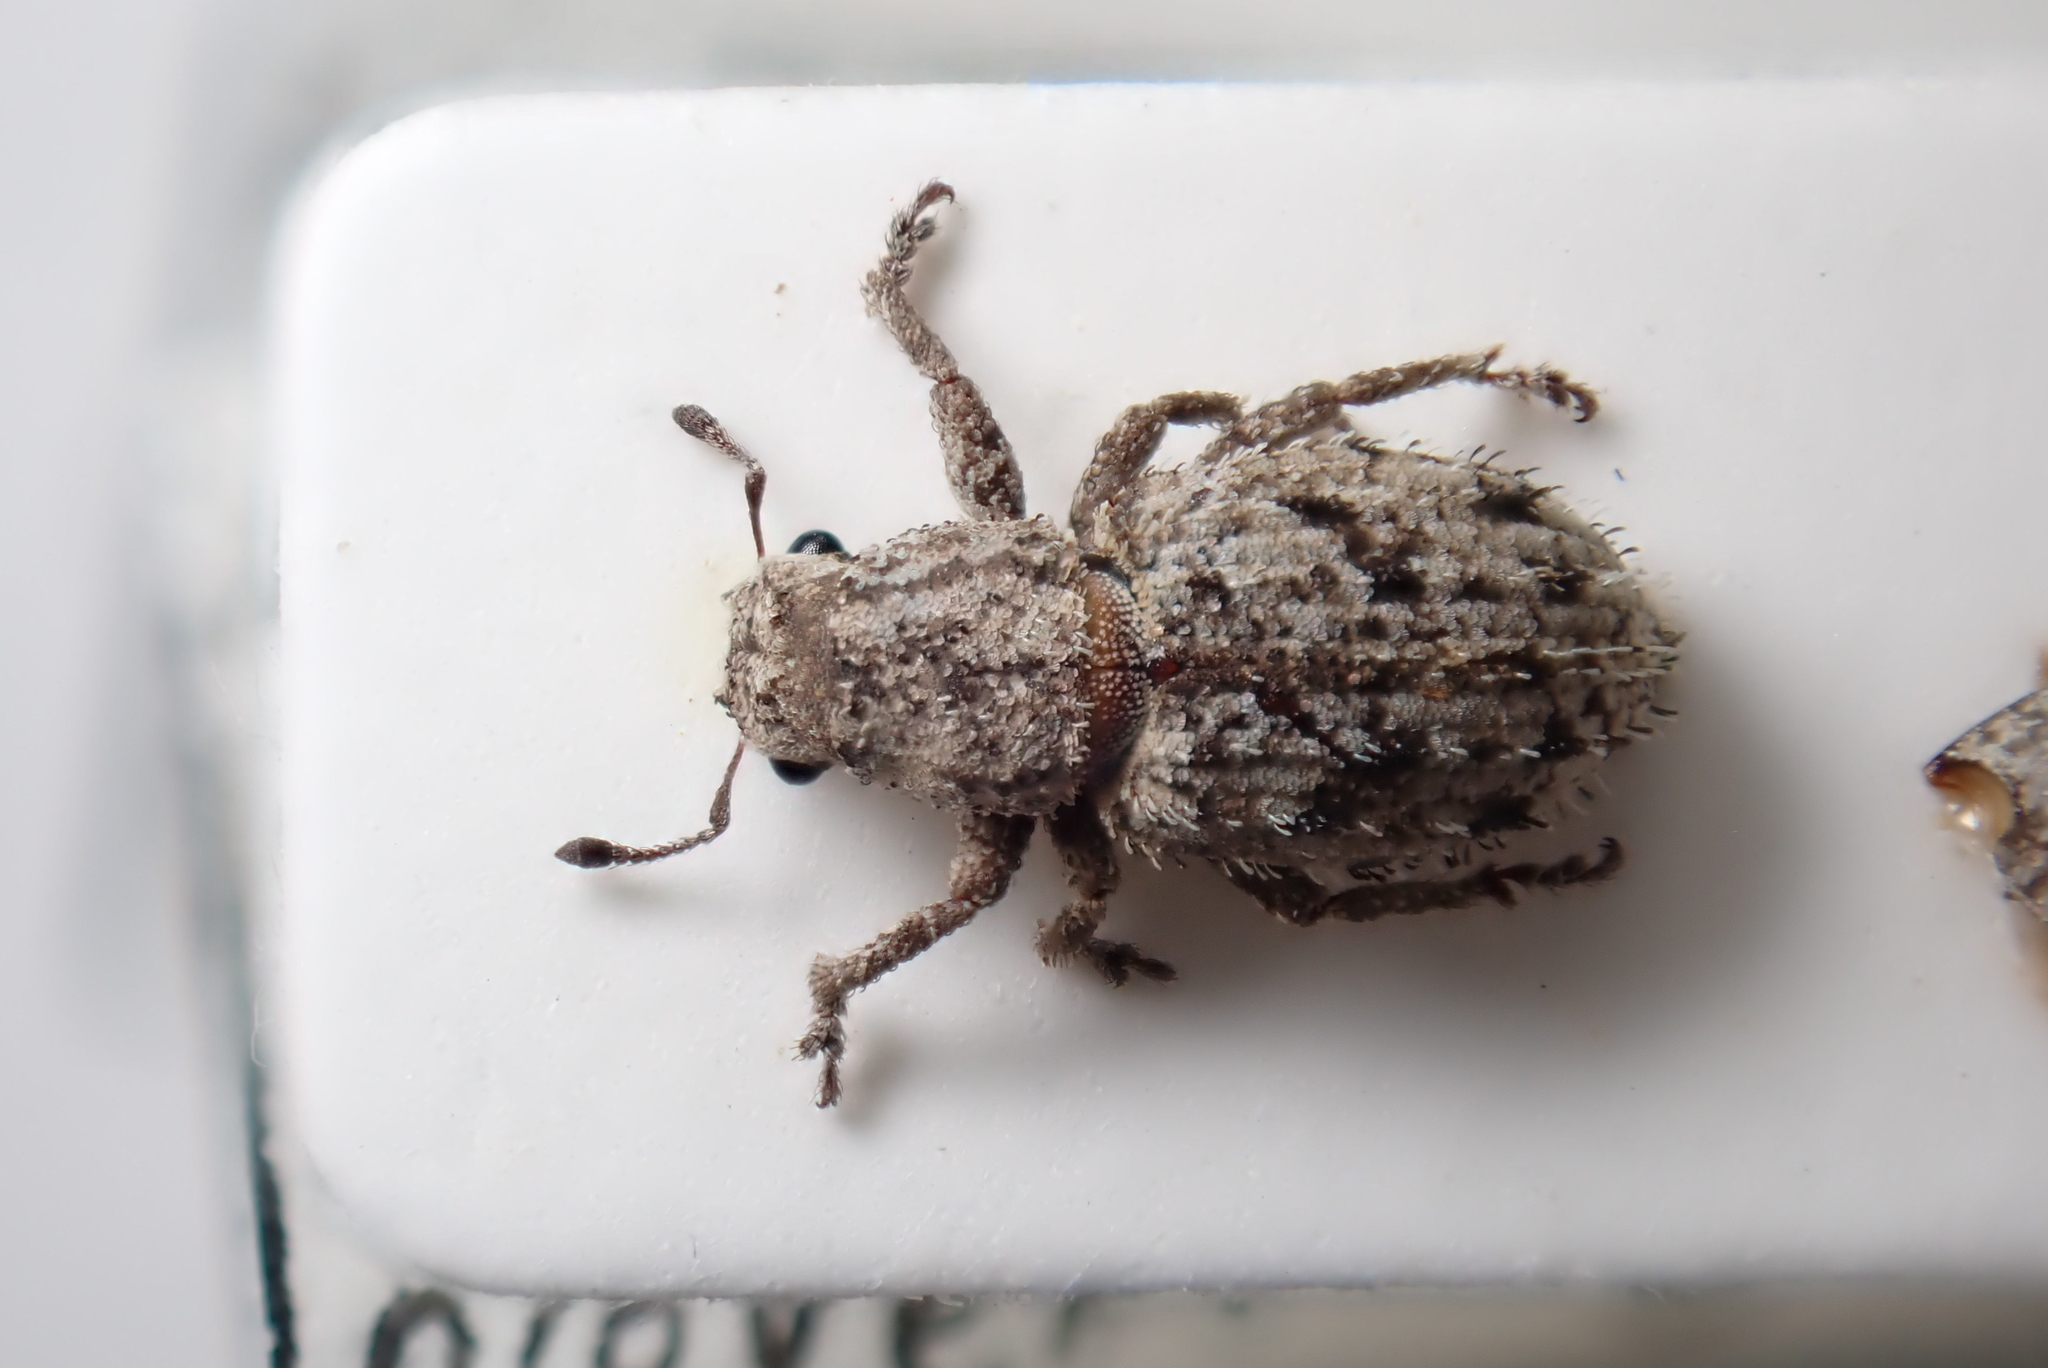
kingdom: Animalia
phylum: Arthropoda
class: Insecta
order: Coleoptera
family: Curculionidae
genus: Floresianus
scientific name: Floresianus sordidus
